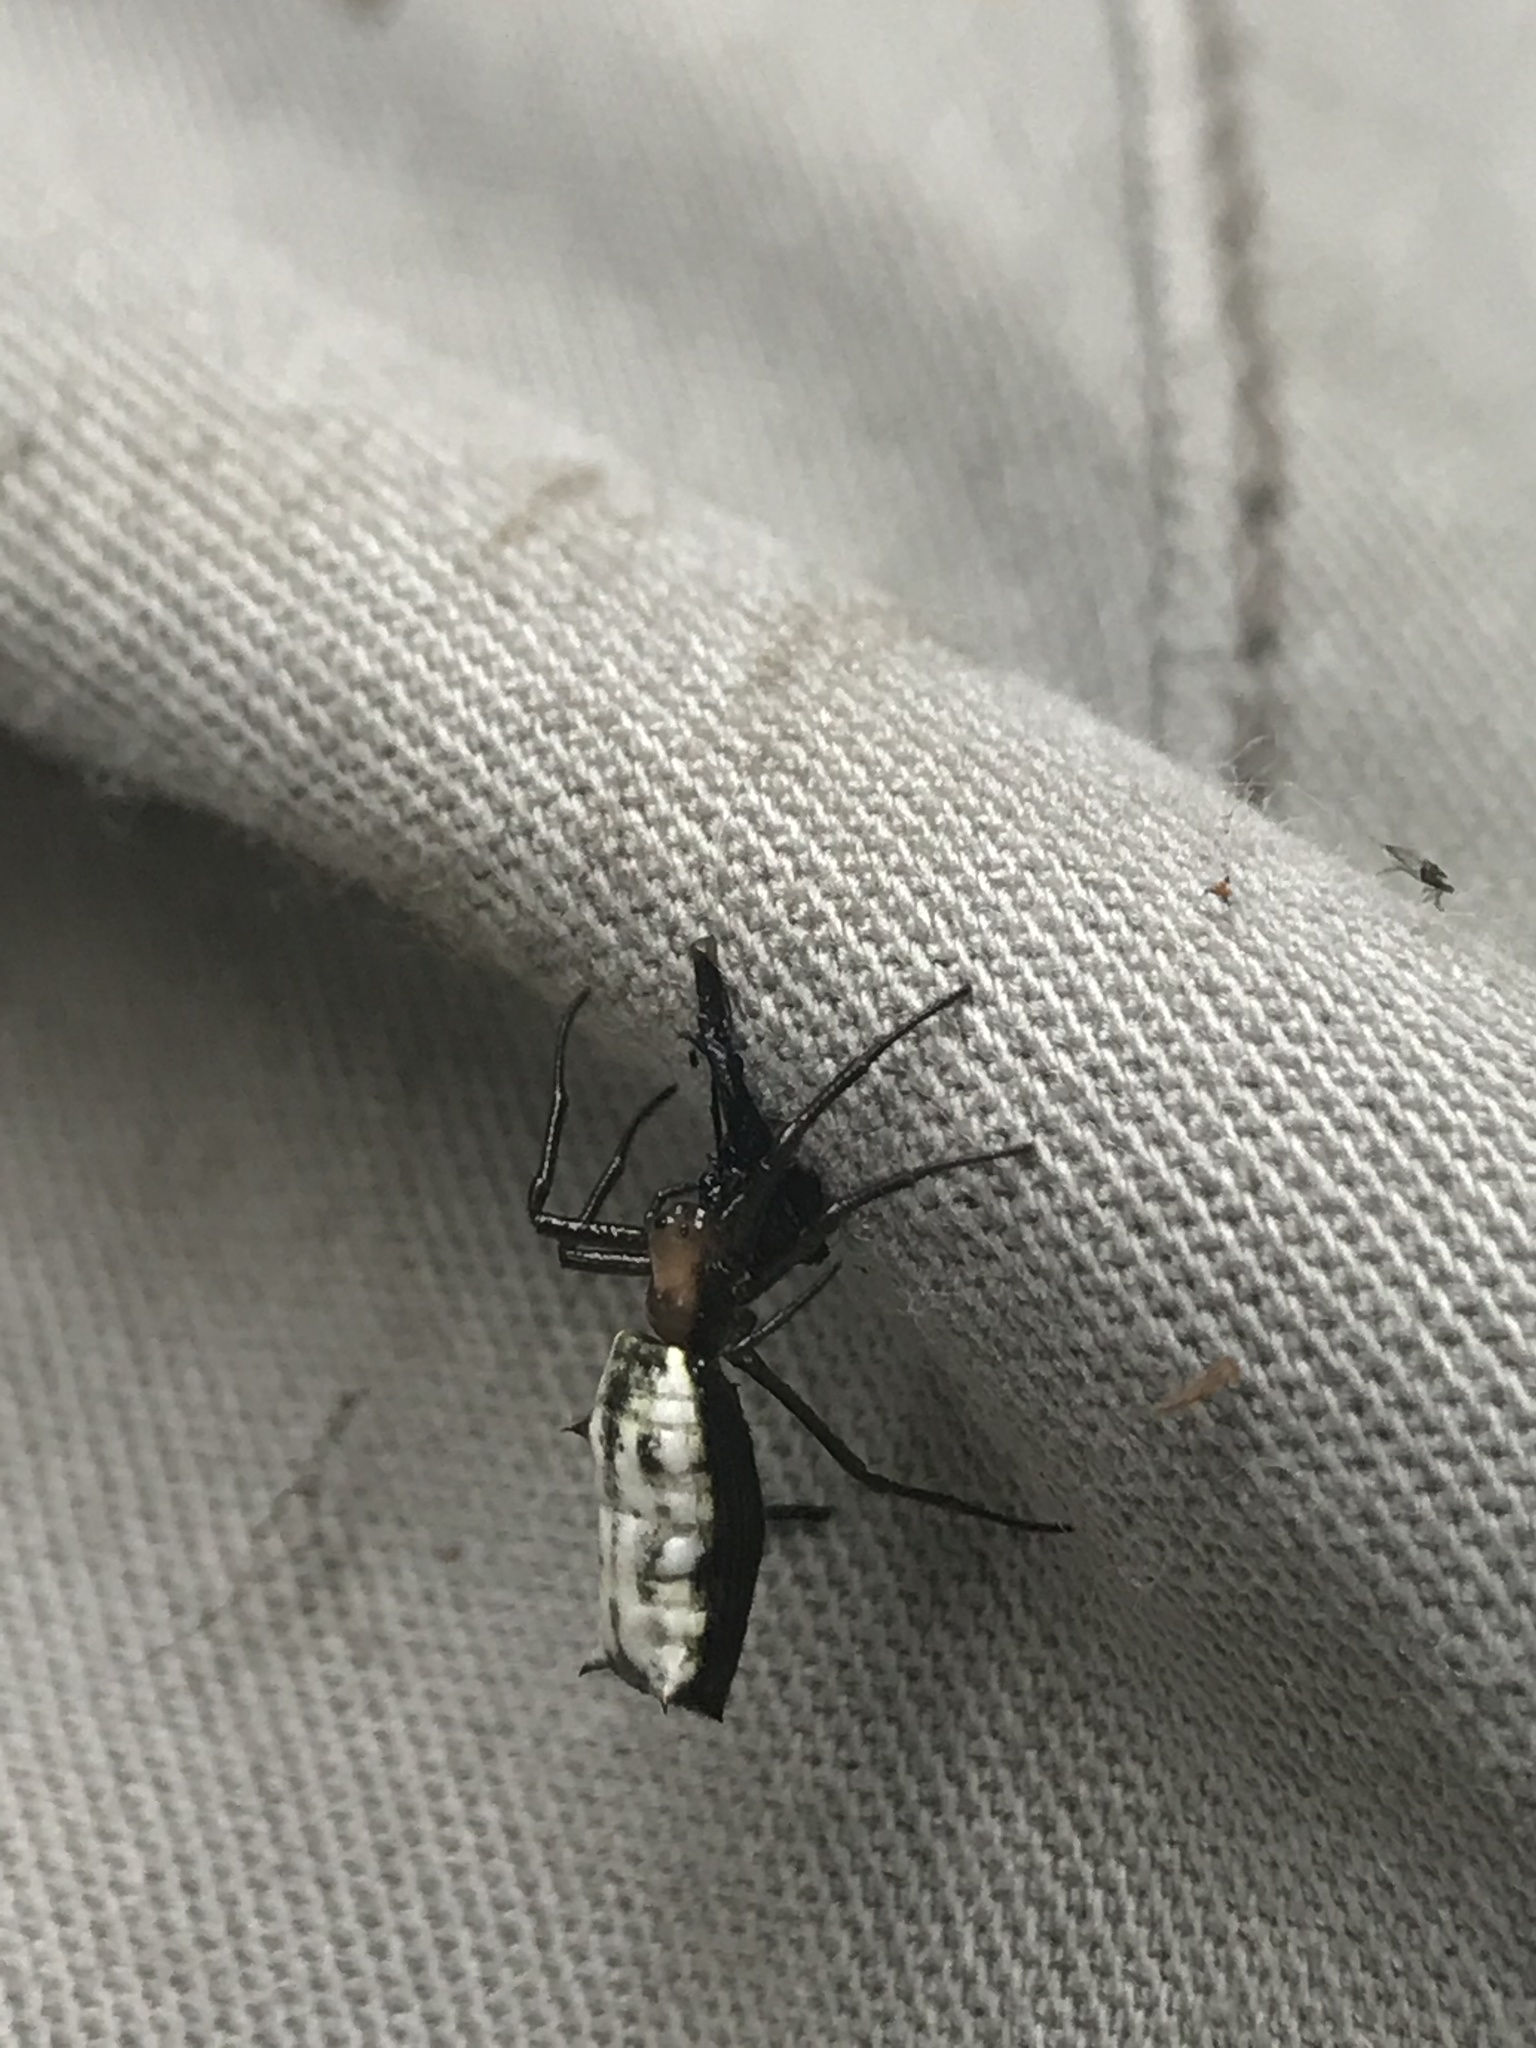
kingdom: Animalia
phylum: Arthropoda
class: Arachnida
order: Araneae
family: Araneidae
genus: Micrathena
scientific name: Micrathena elongata
